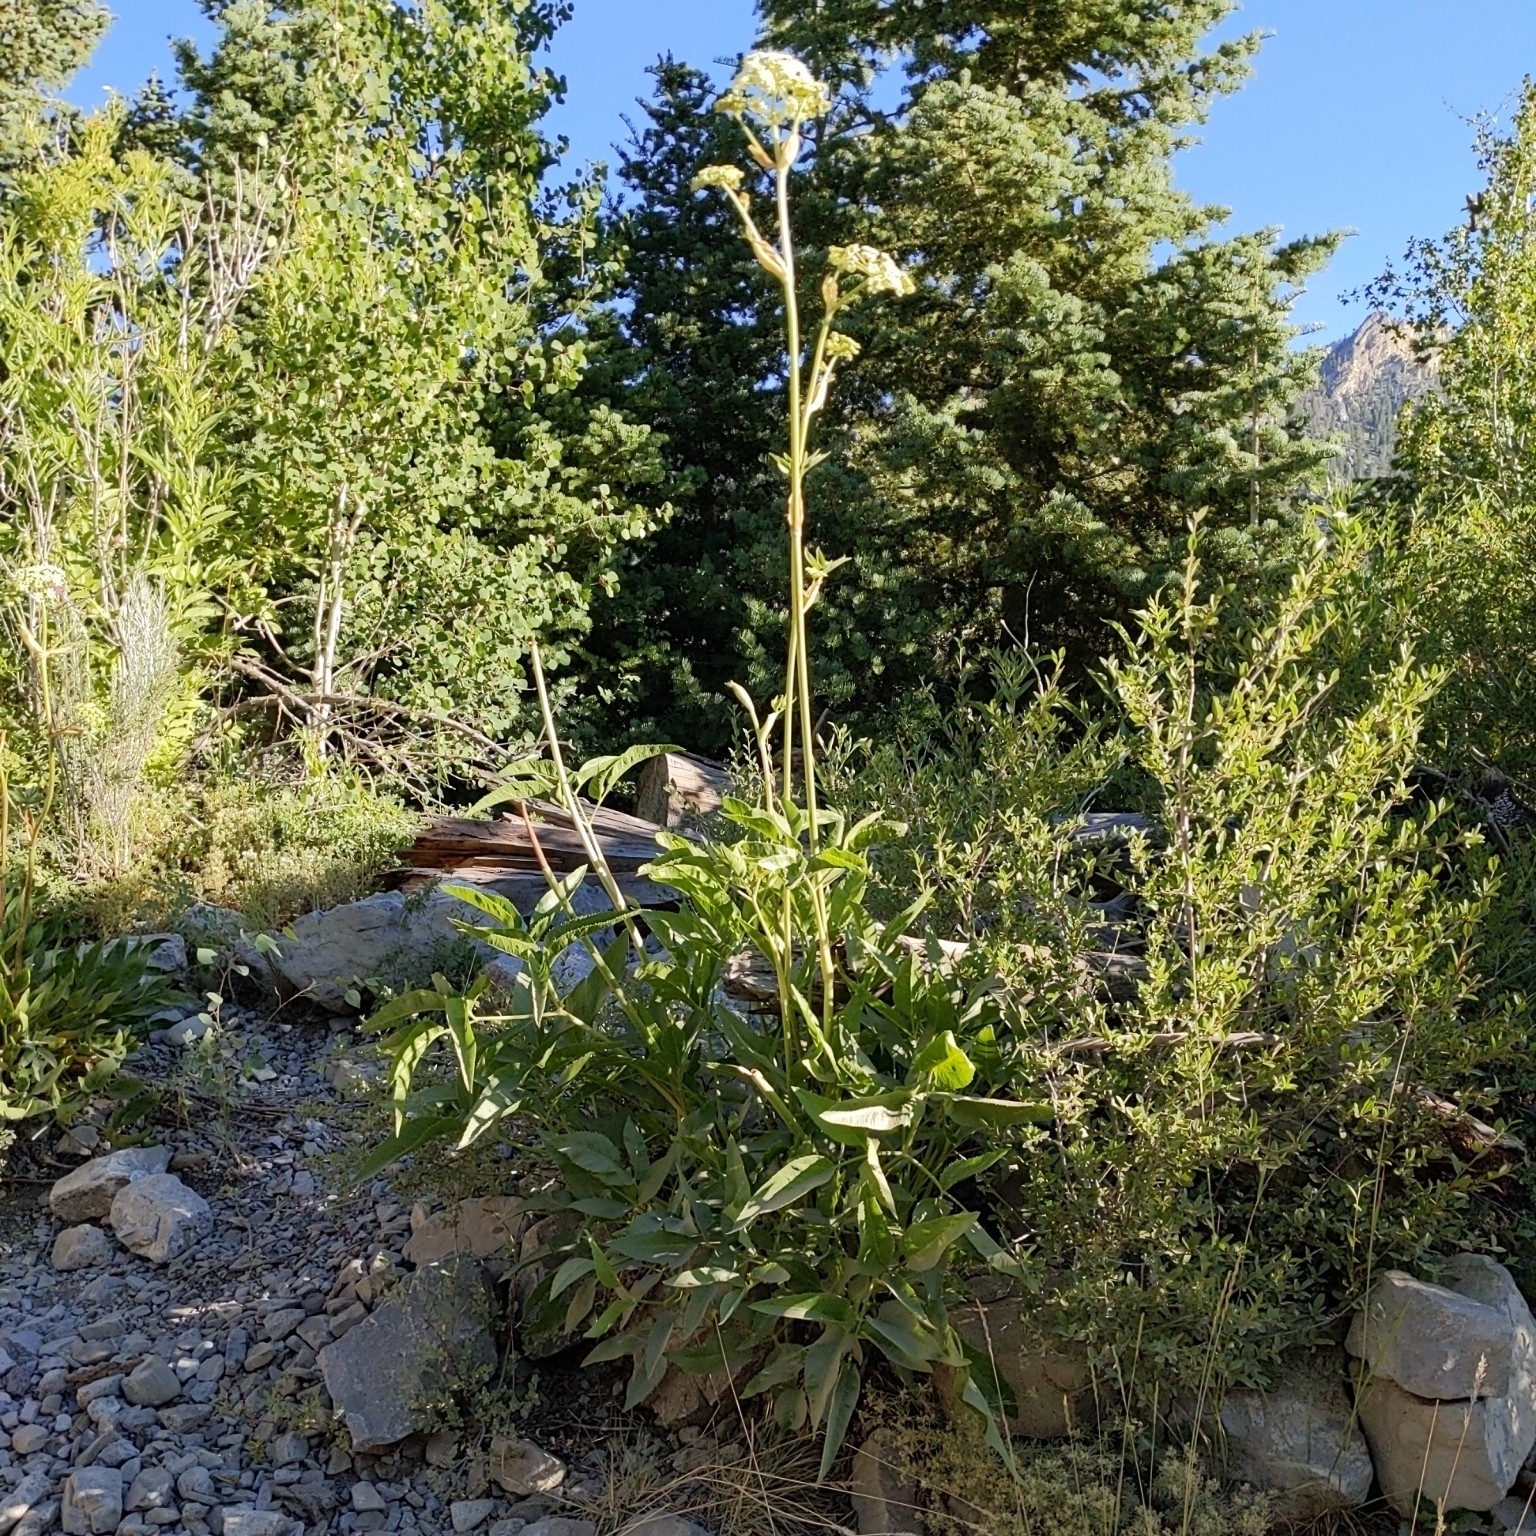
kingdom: Plantae
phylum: Tracheophyta
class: Magnoliopsida
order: Apiales
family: Apiaceae
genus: Angelica
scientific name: Angelica lineariloba
